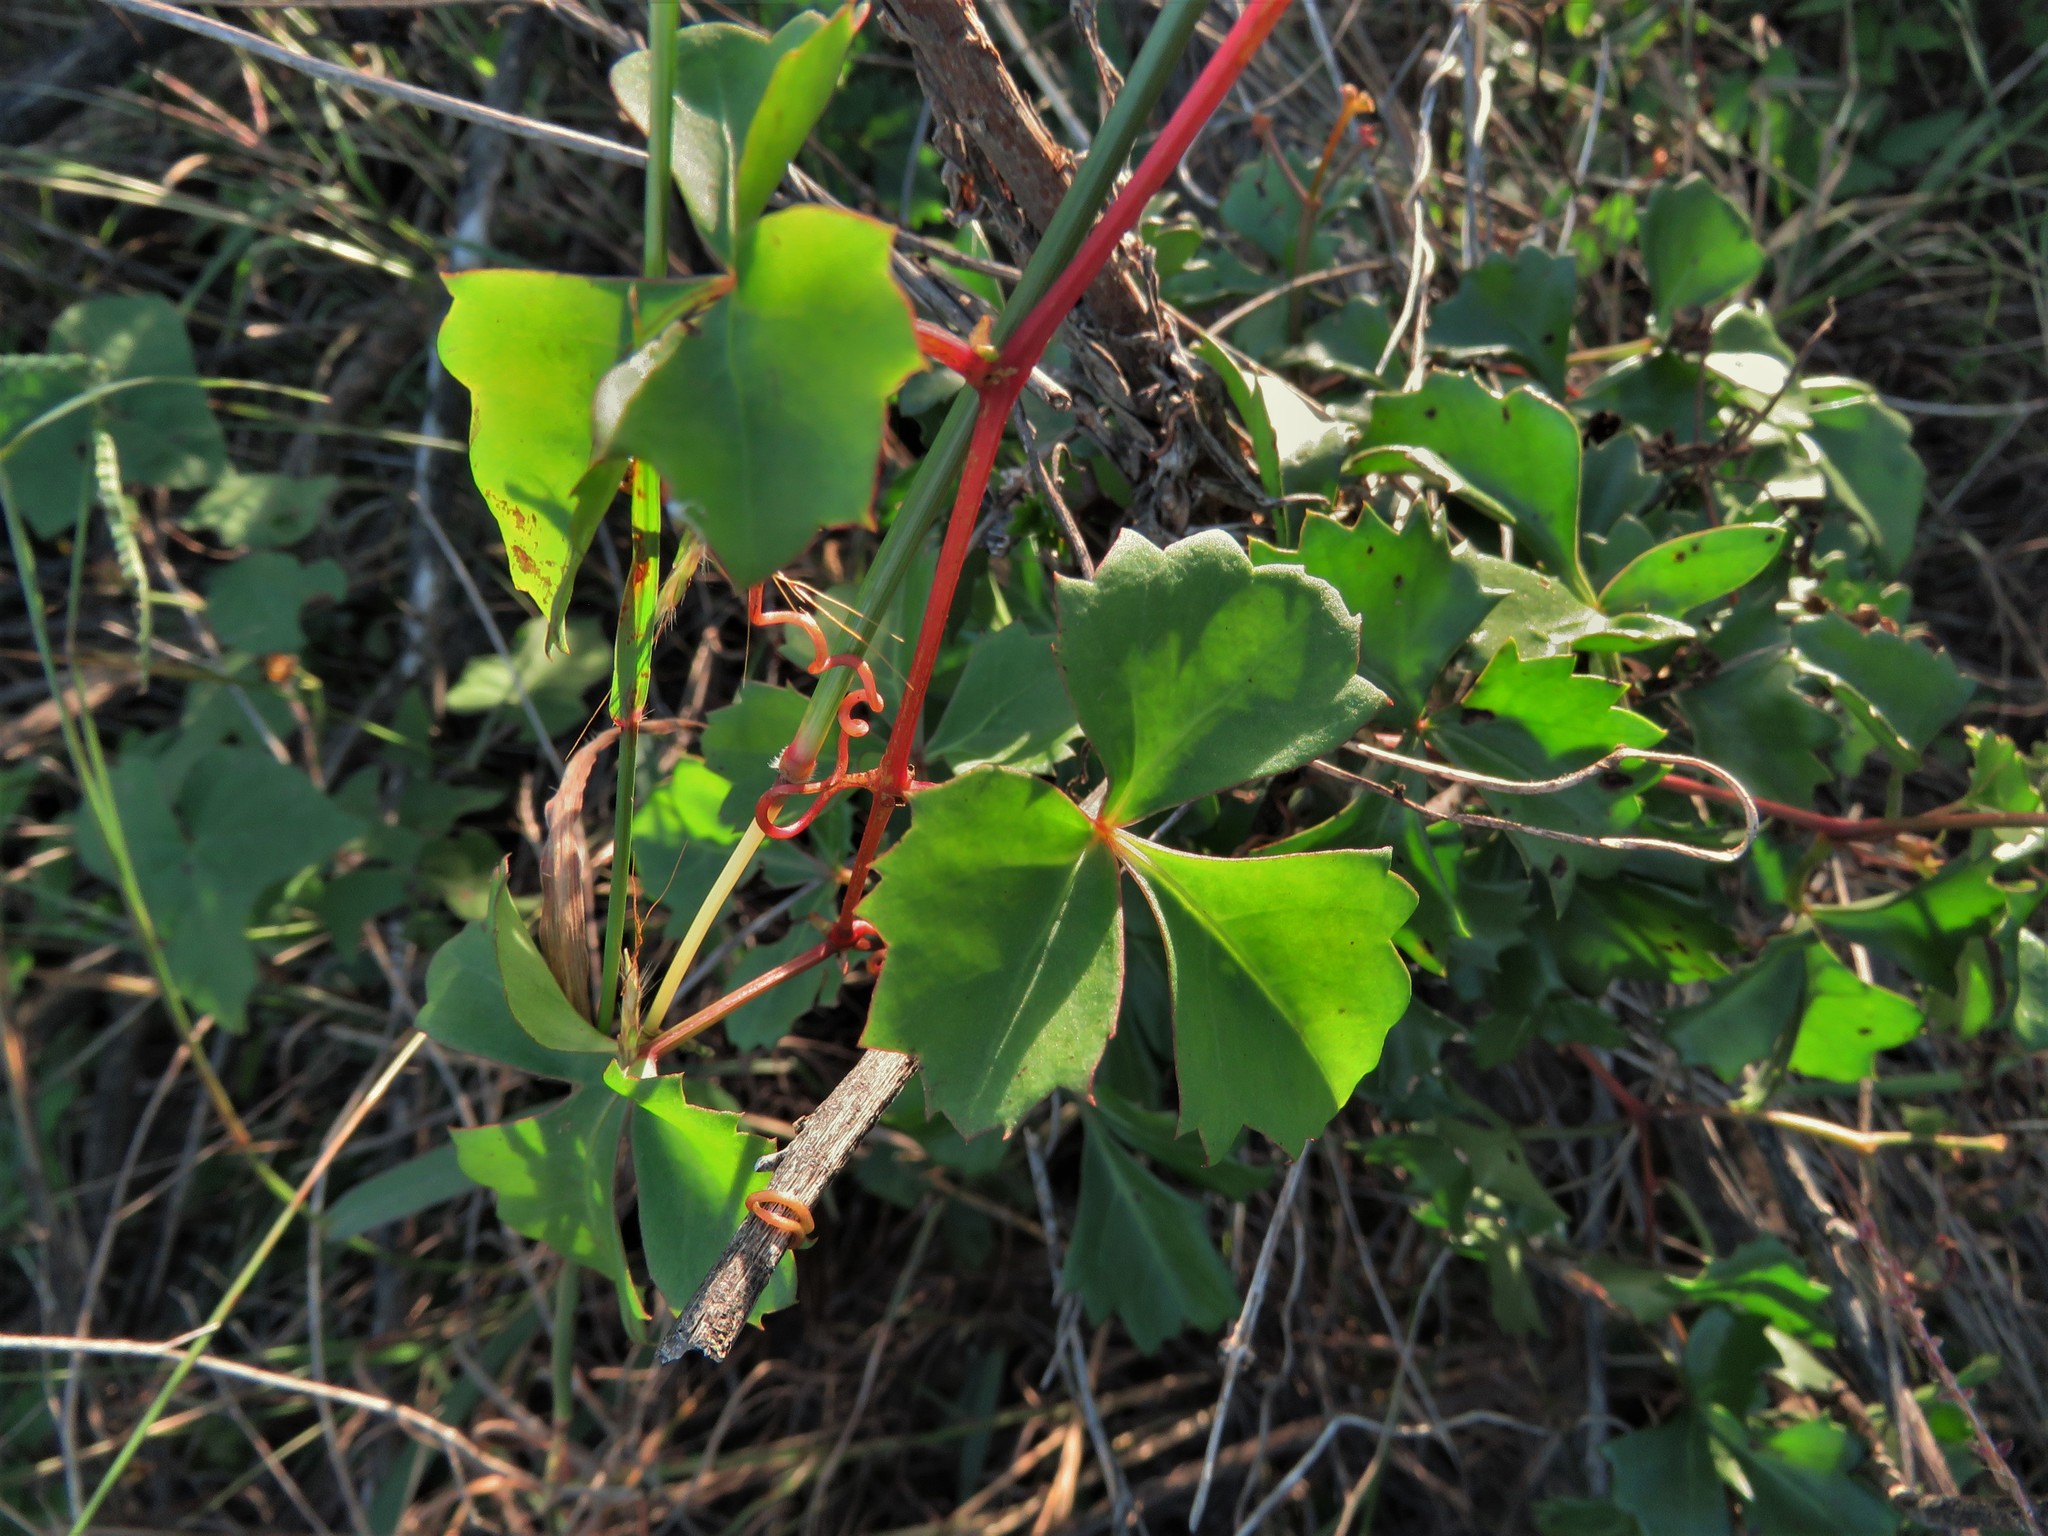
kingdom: Plantae
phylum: Tracheophyta
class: Magnoliopsida
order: Vitales
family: Vitaceae
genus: Cissus
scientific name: Cissus trifoliata
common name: Vine-sorrel
